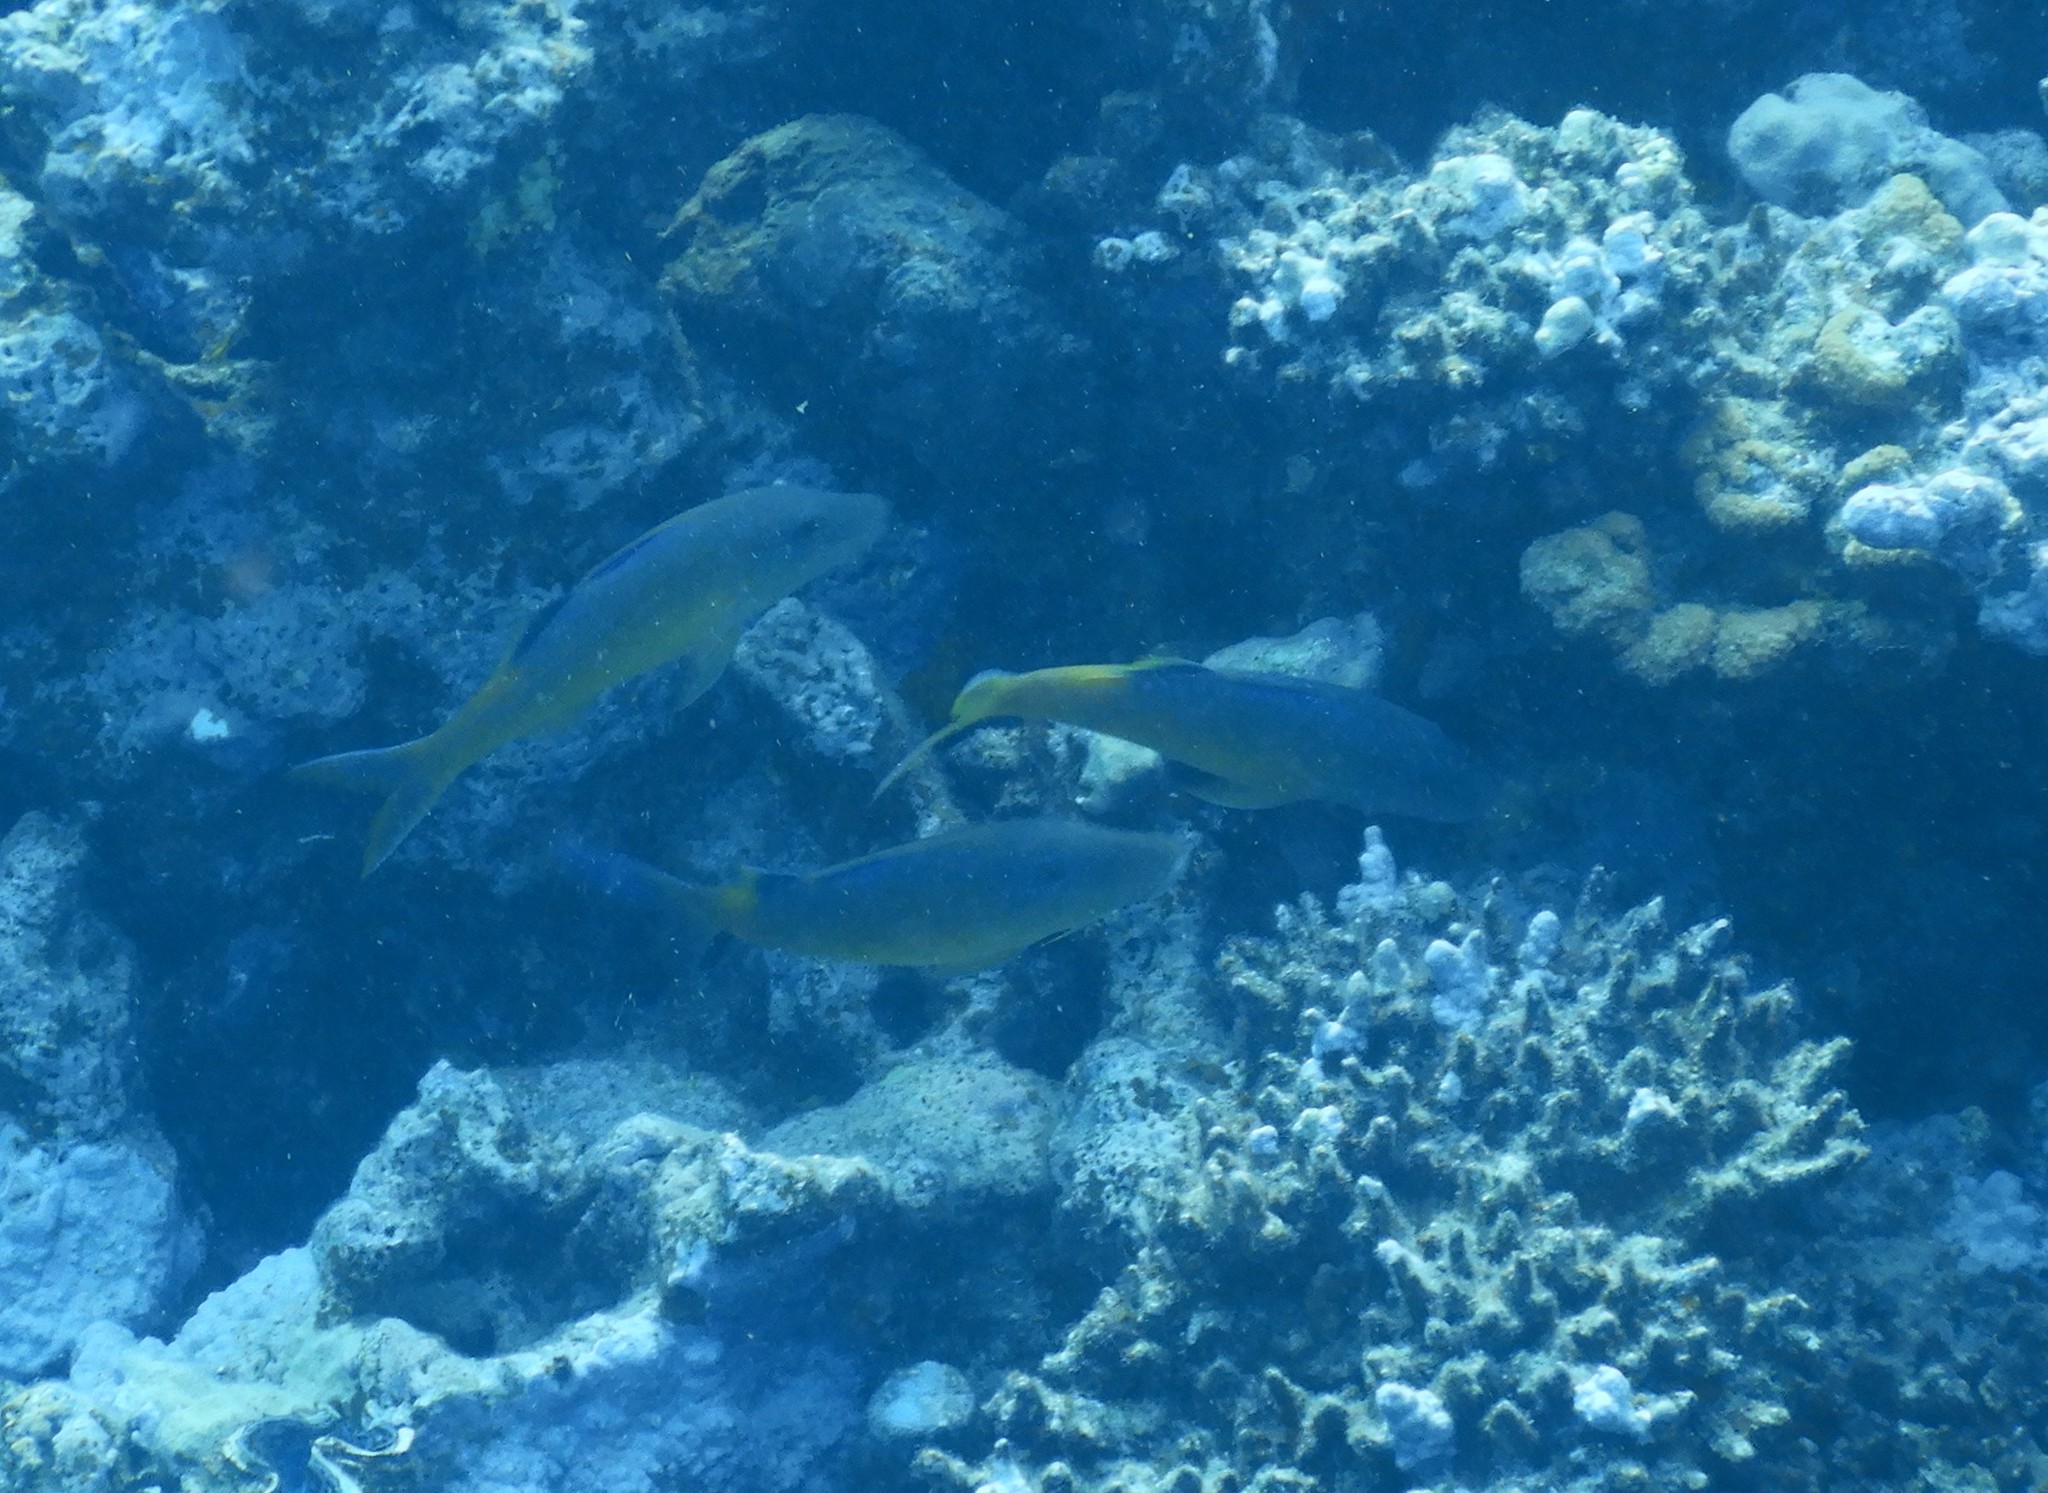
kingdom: Animalia
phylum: Chordata
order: Perciformes
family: Mullidae
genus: Parupeneus
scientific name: Parupeneus cyclostomus
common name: Goldsaddle goatfish
